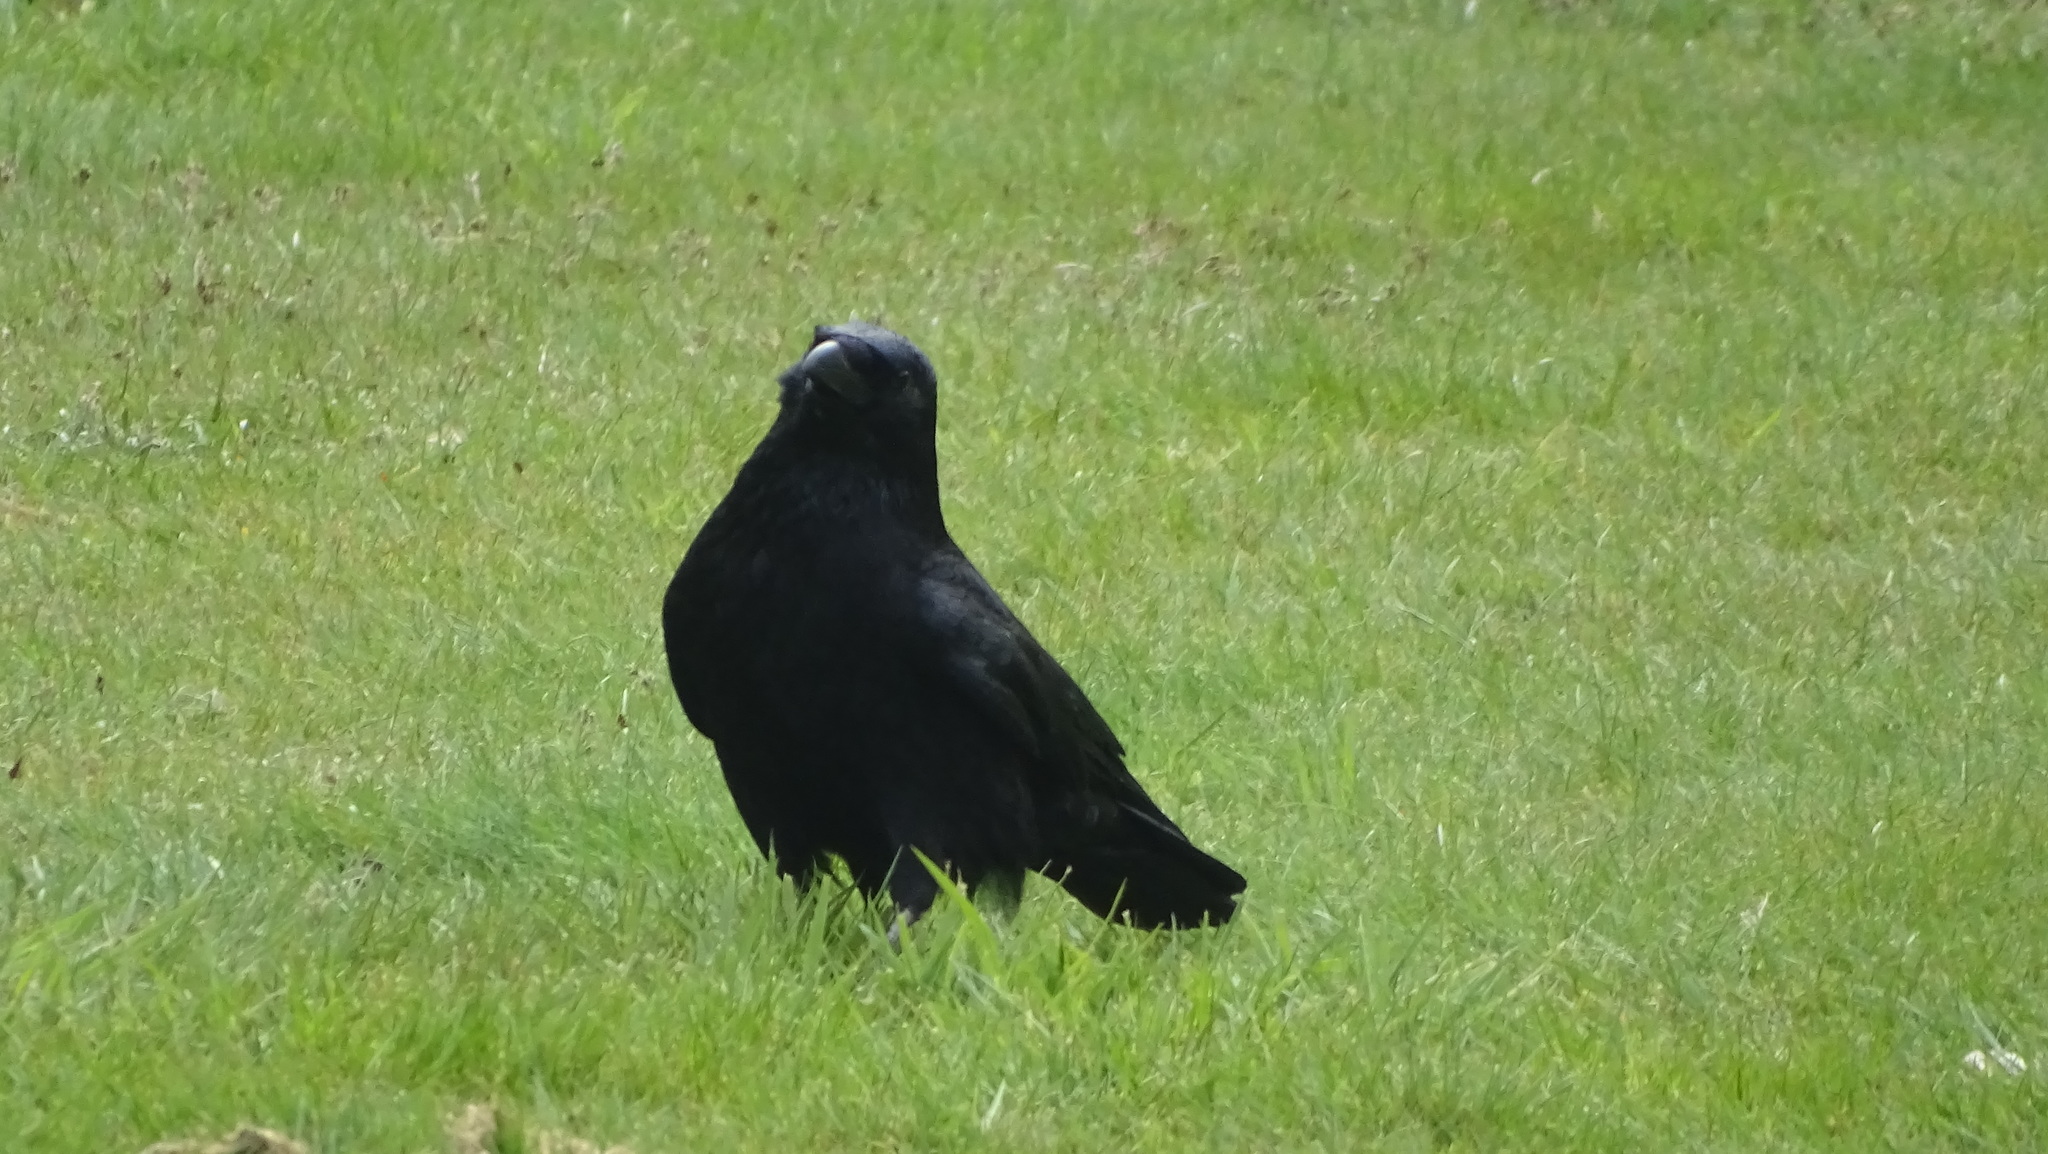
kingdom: Animalia
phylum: Chordata
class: Aves
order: Passeriformes
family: Corvidae
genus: Corvus
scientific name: Corvus corone
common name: Carrion crow
